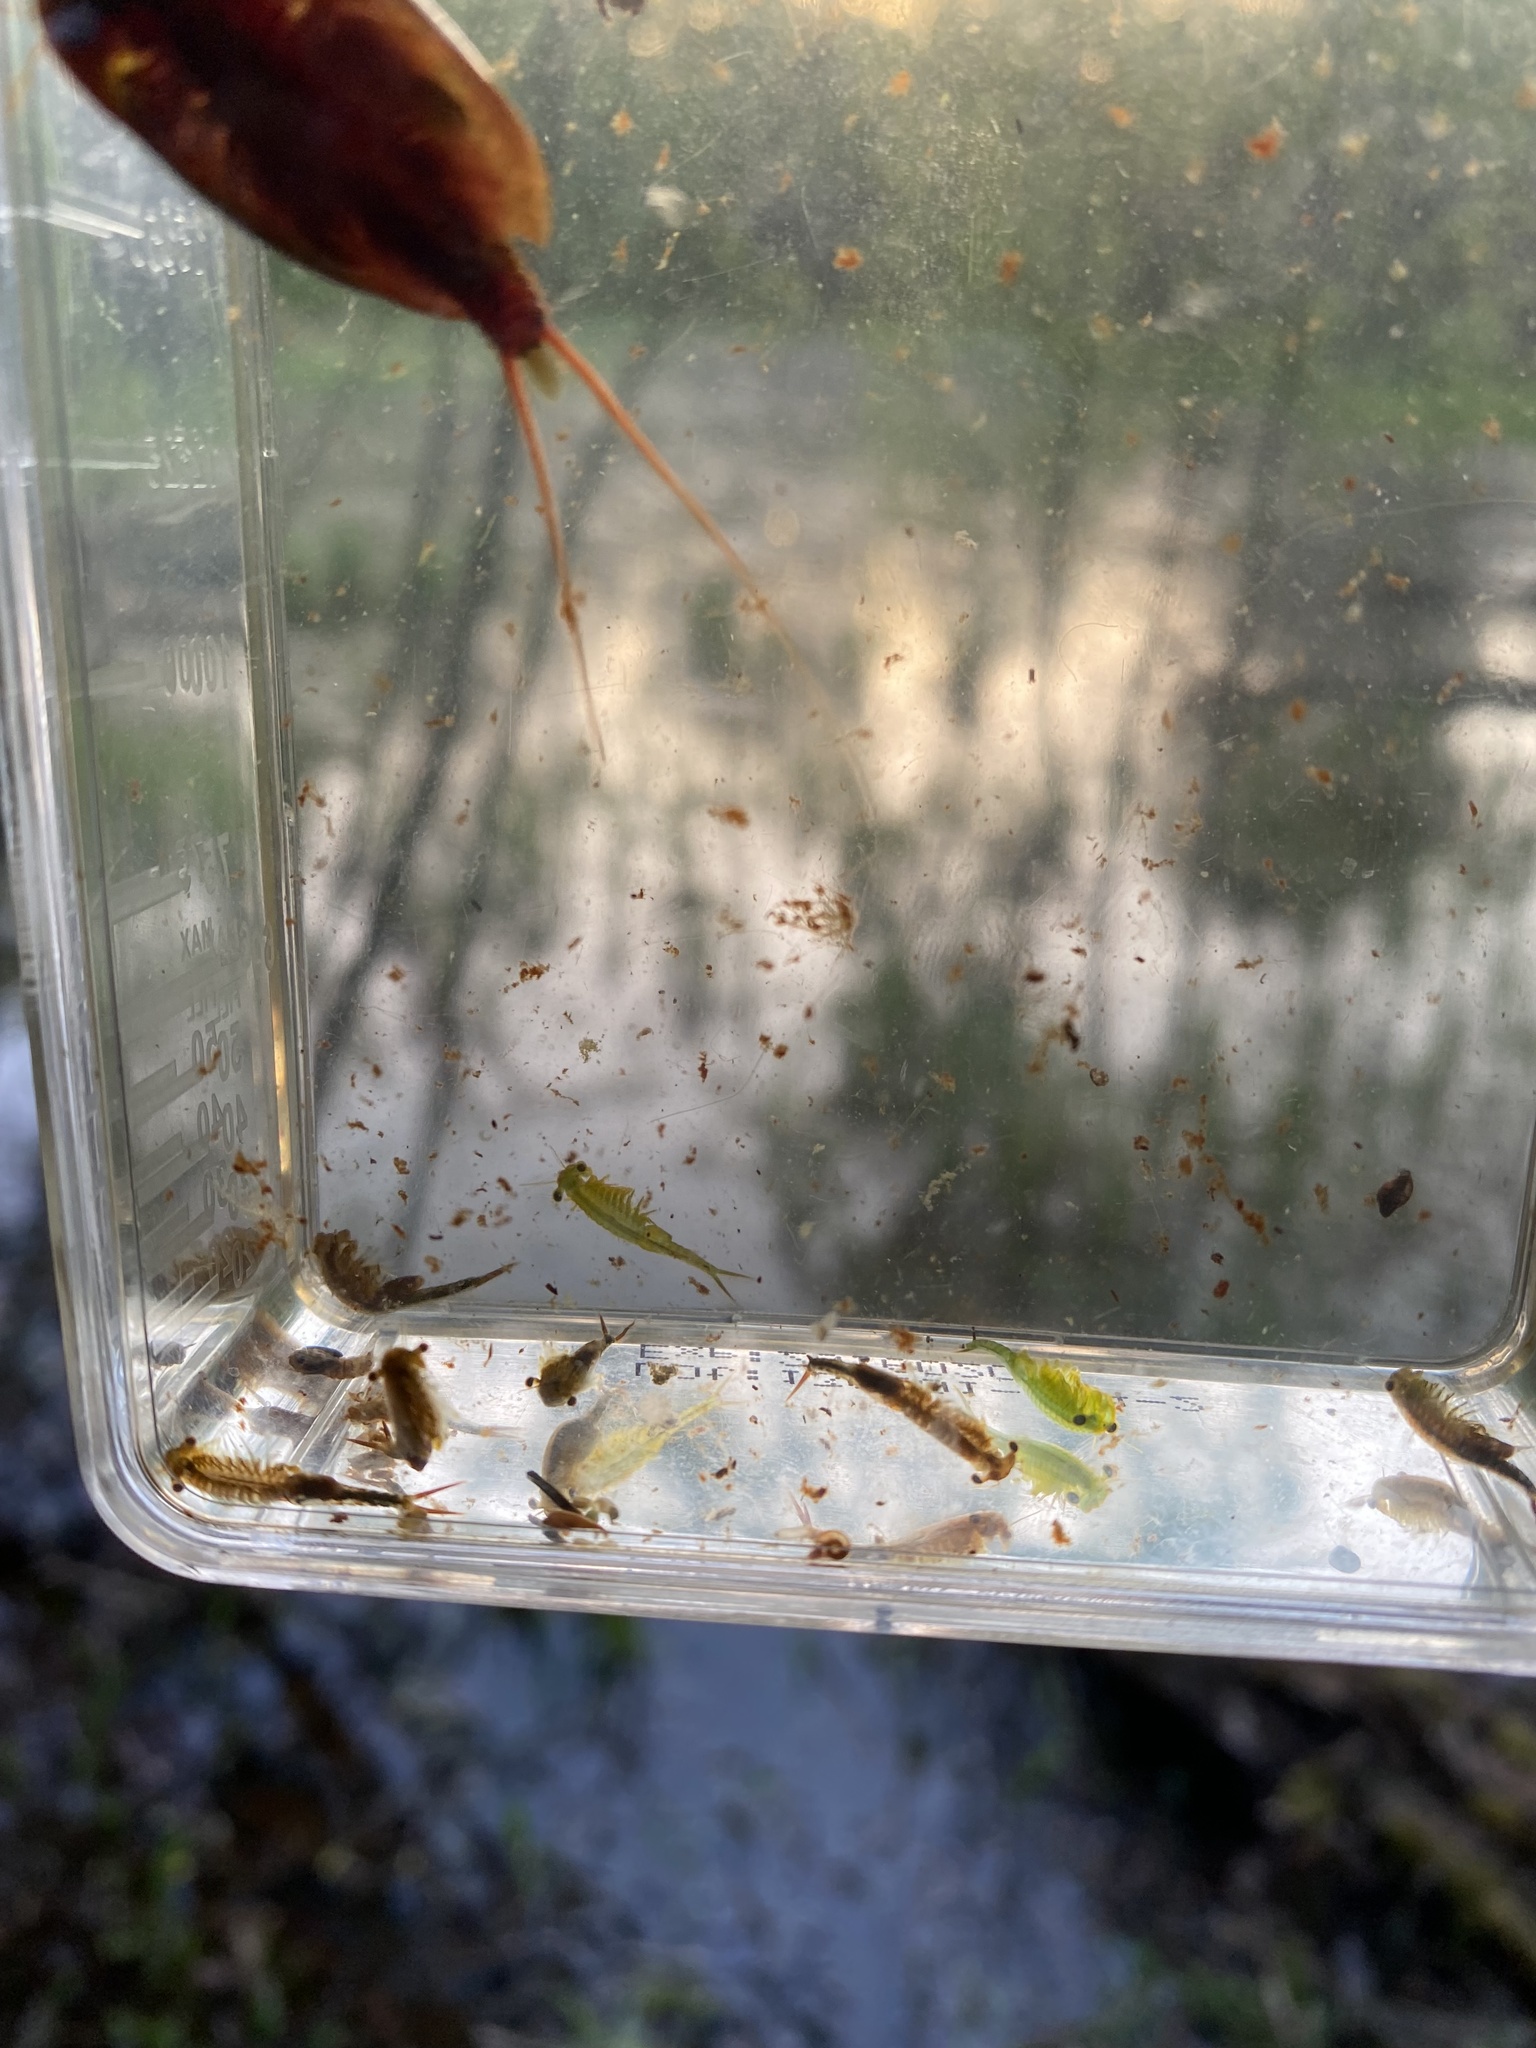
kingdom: Animalia
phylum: Arthropoda
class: Branchiopoda
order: Anostraca
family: Chirocephalidae
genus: Chirocephalus
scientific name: Chirocephalus shadini
